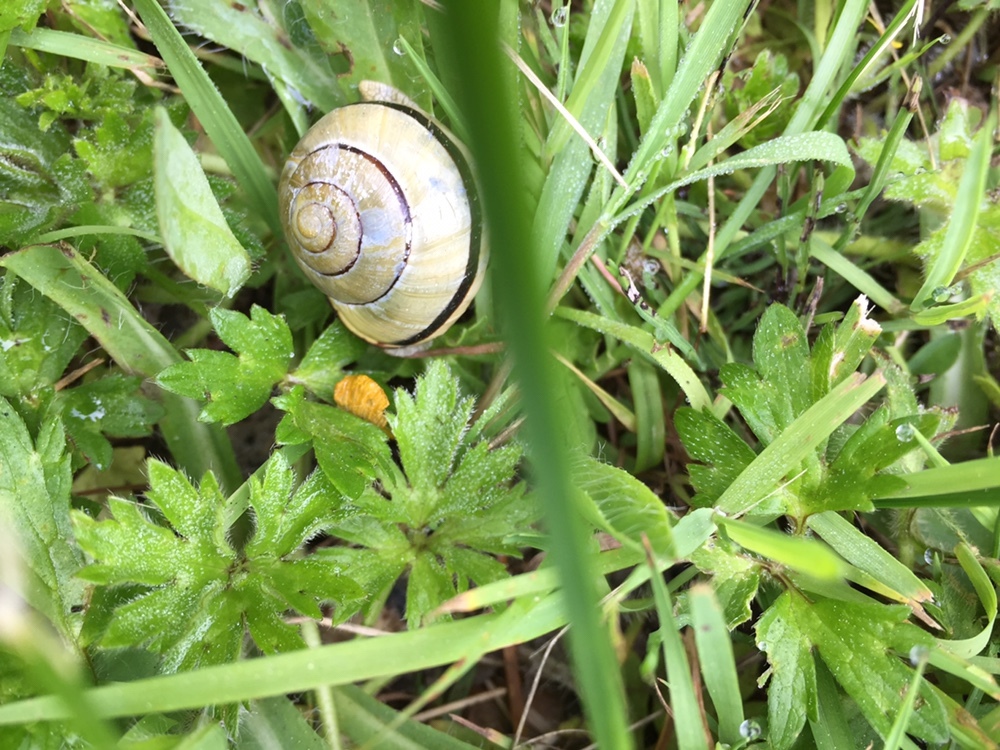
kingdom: Animalia
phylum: Mollusca
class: Gastropoda
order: Stylommatophora
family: Helicidae
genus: Cepaea
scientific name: Cepaea nemoralis
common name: Grovesnail
